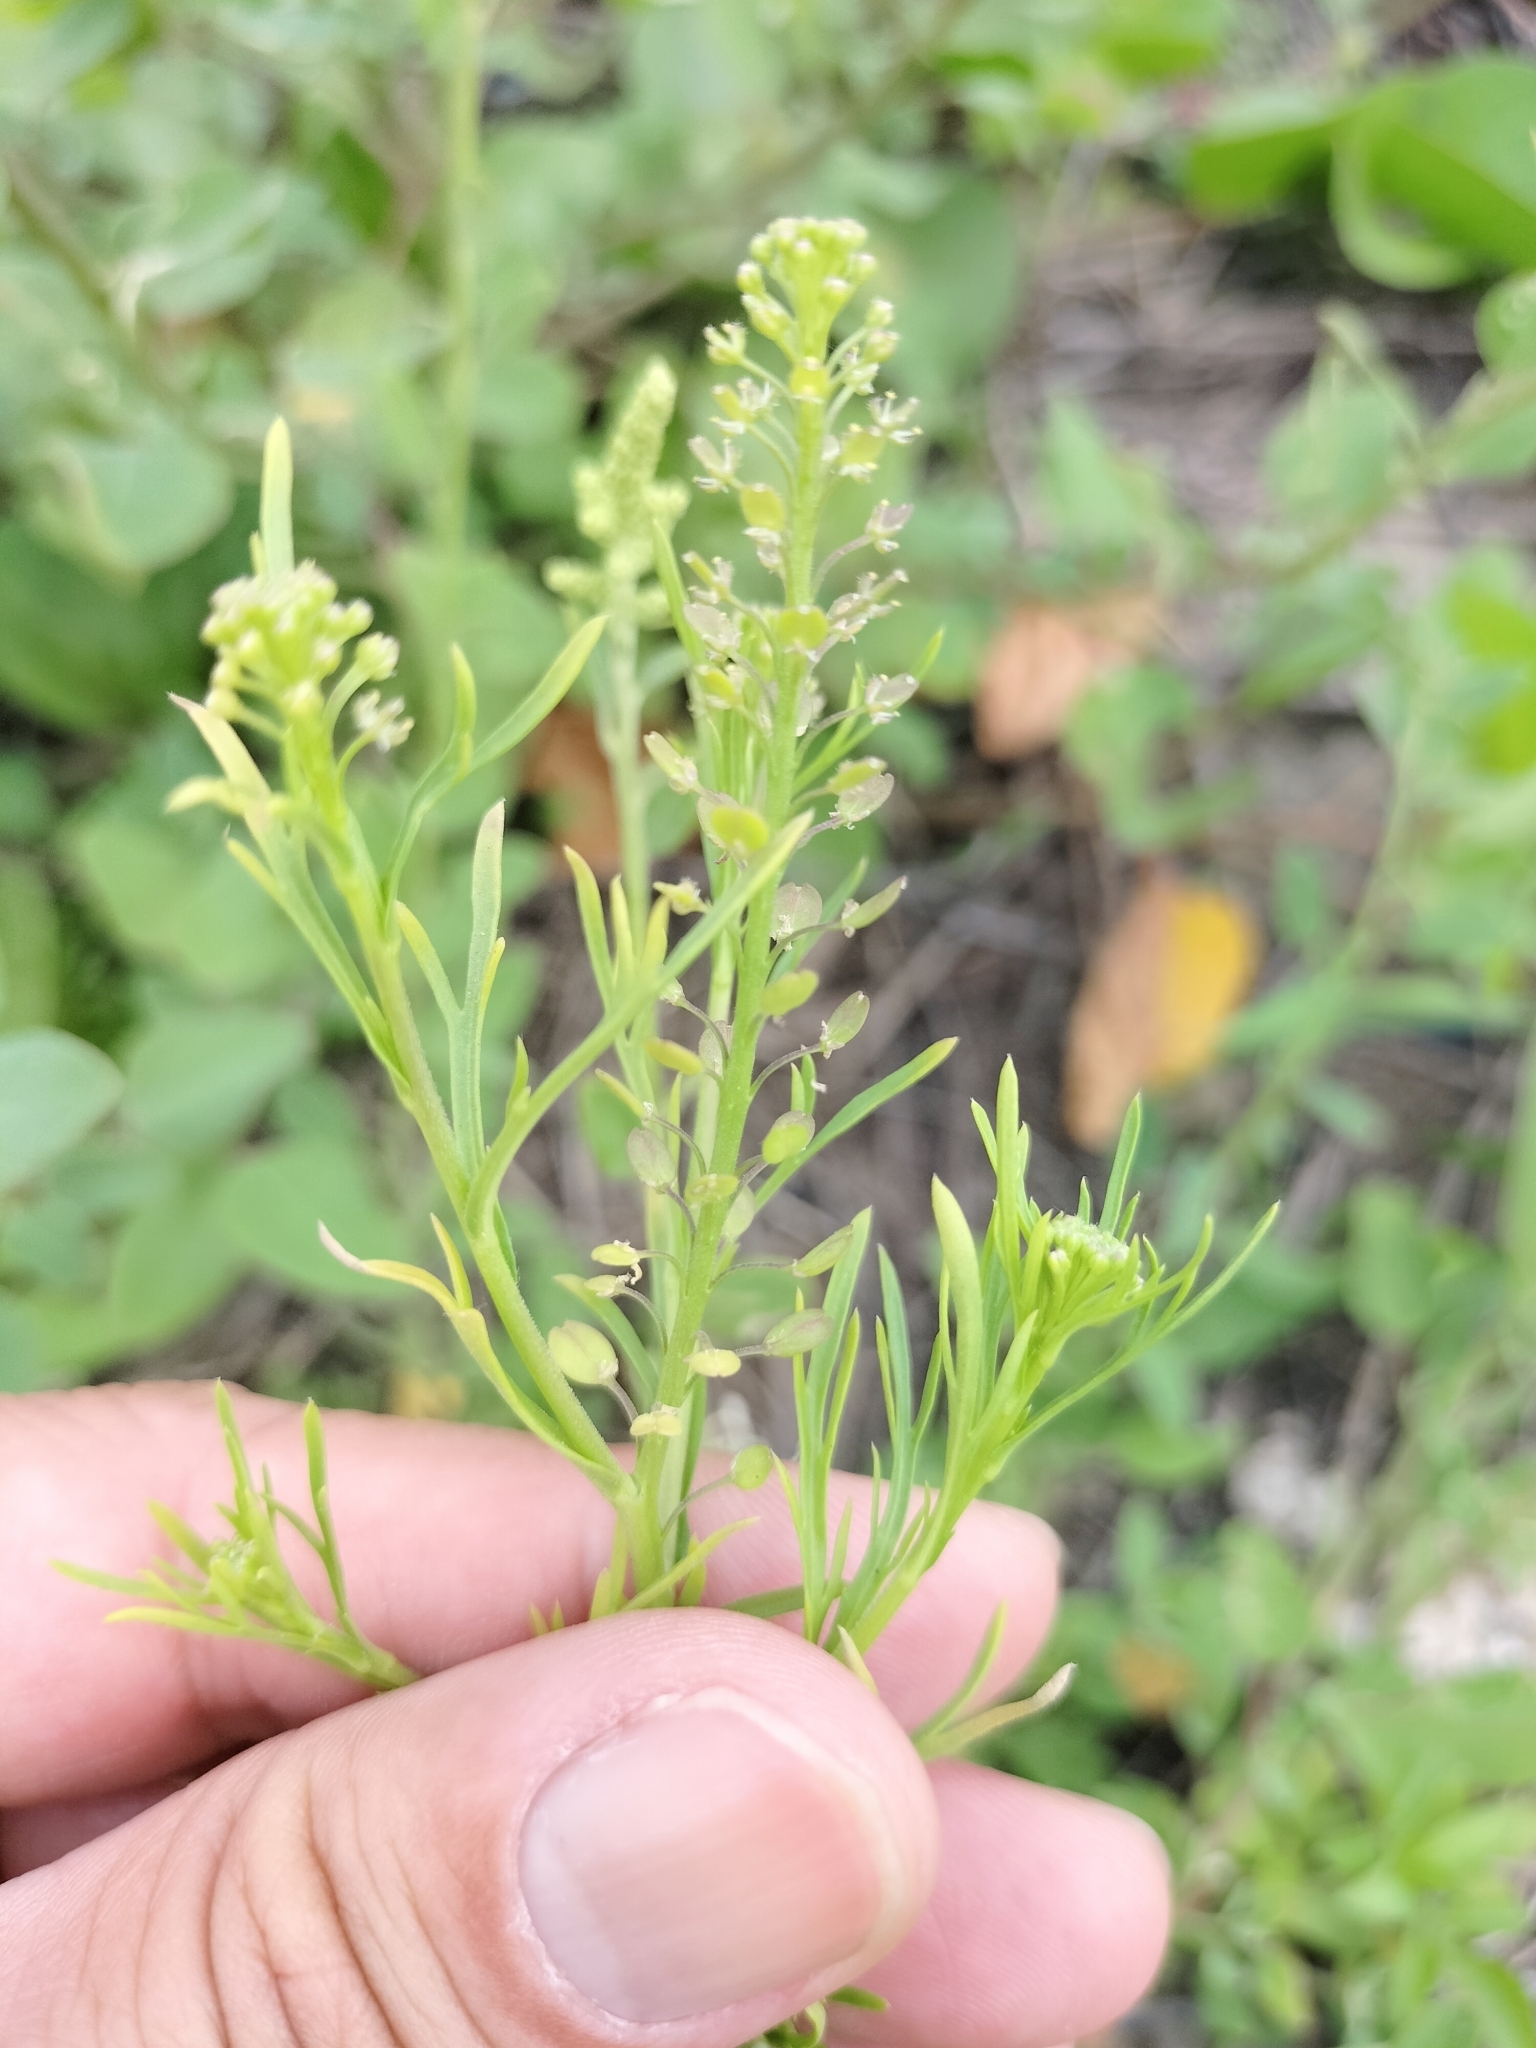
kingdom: Plantae
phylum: Tracheophyta
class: Magnoliopsida
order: Brassicales
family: Brassicaceae
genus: Lepidium
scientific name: Lepidium virginicum
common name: Least pepperwort
